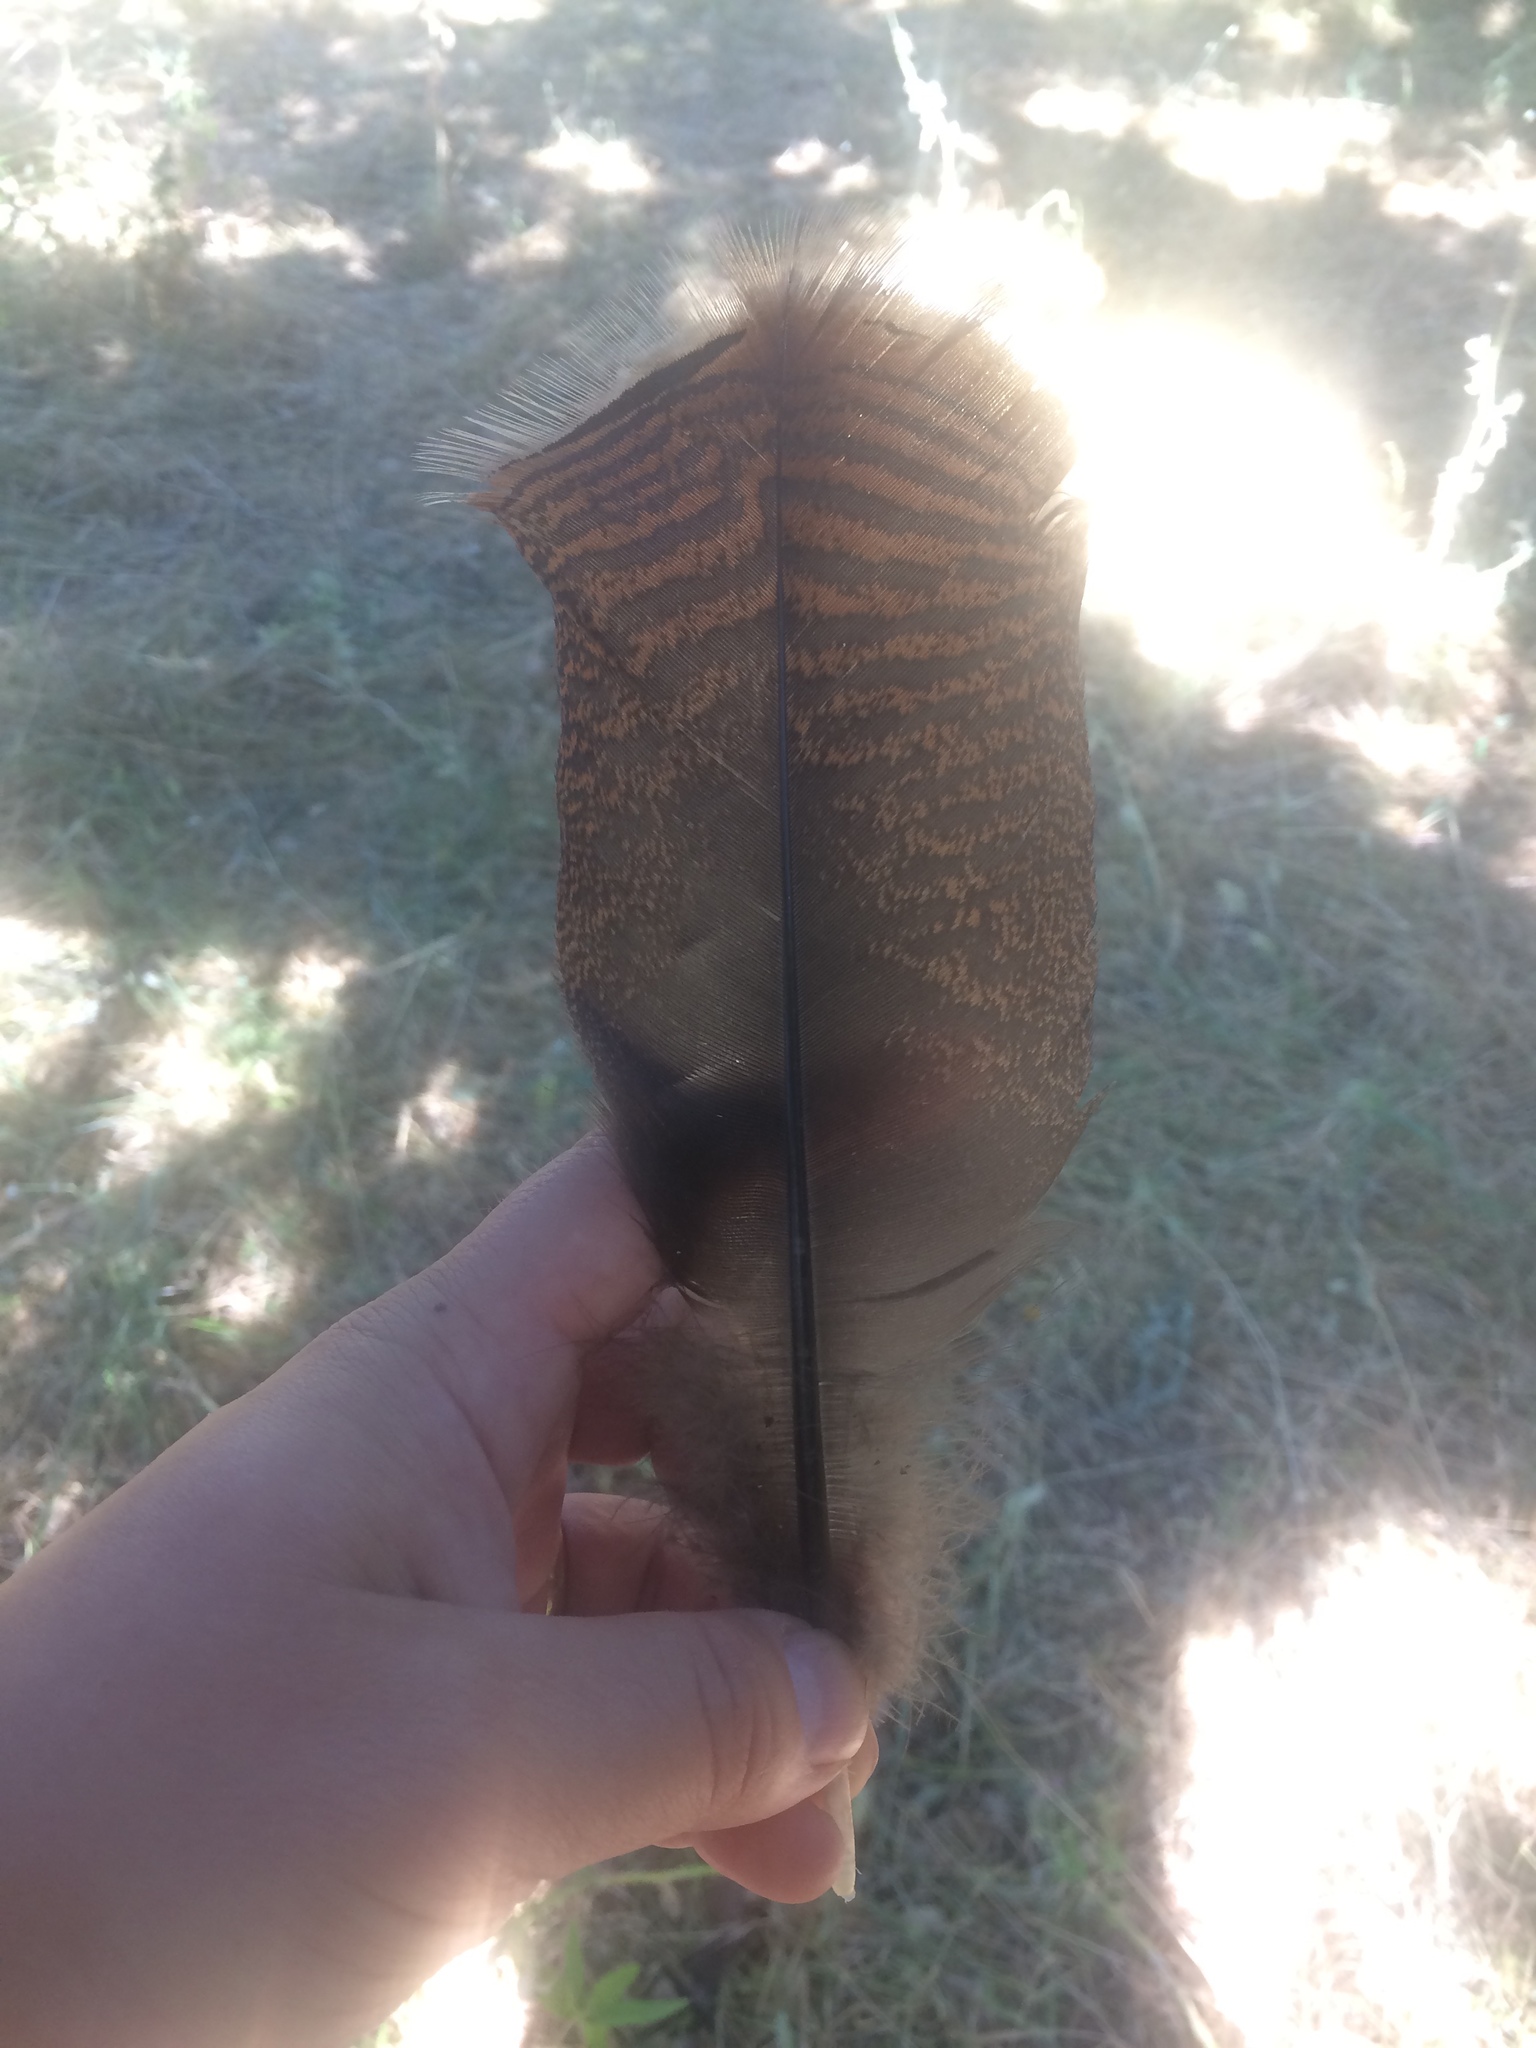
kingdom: Animalia
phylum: Chordata
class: Aves
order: Galliformes
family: Phasianidae
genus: Meleagris
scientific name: Meleagris gallopavo
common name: Wild turkey
